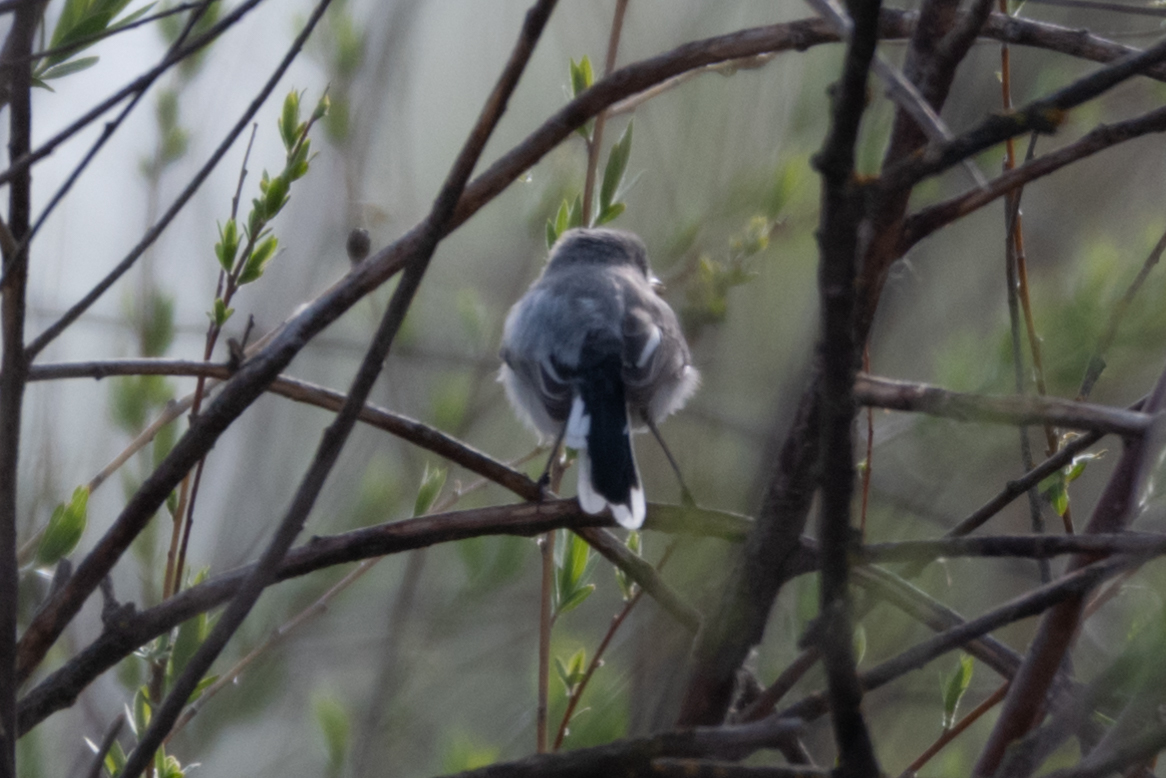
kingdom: Animalia
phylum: Chordata
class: Aves
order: Passeriformes
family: Polioptilidae
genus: Polioptila
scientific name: Polioptila caerulea
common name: Blue-gray gnatcatcher
